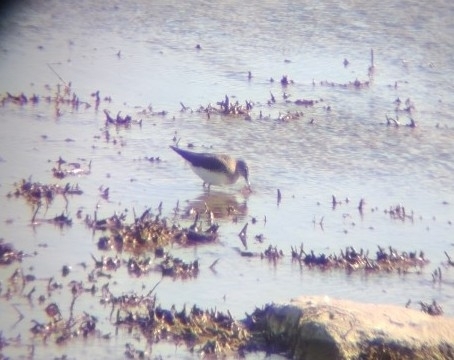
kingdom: Animalia
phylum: Chordata
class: Aves
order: Charadriiformes
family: Scolopacidae
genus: Tringa
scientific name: Tringa ochropus
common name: Green sandpiper
